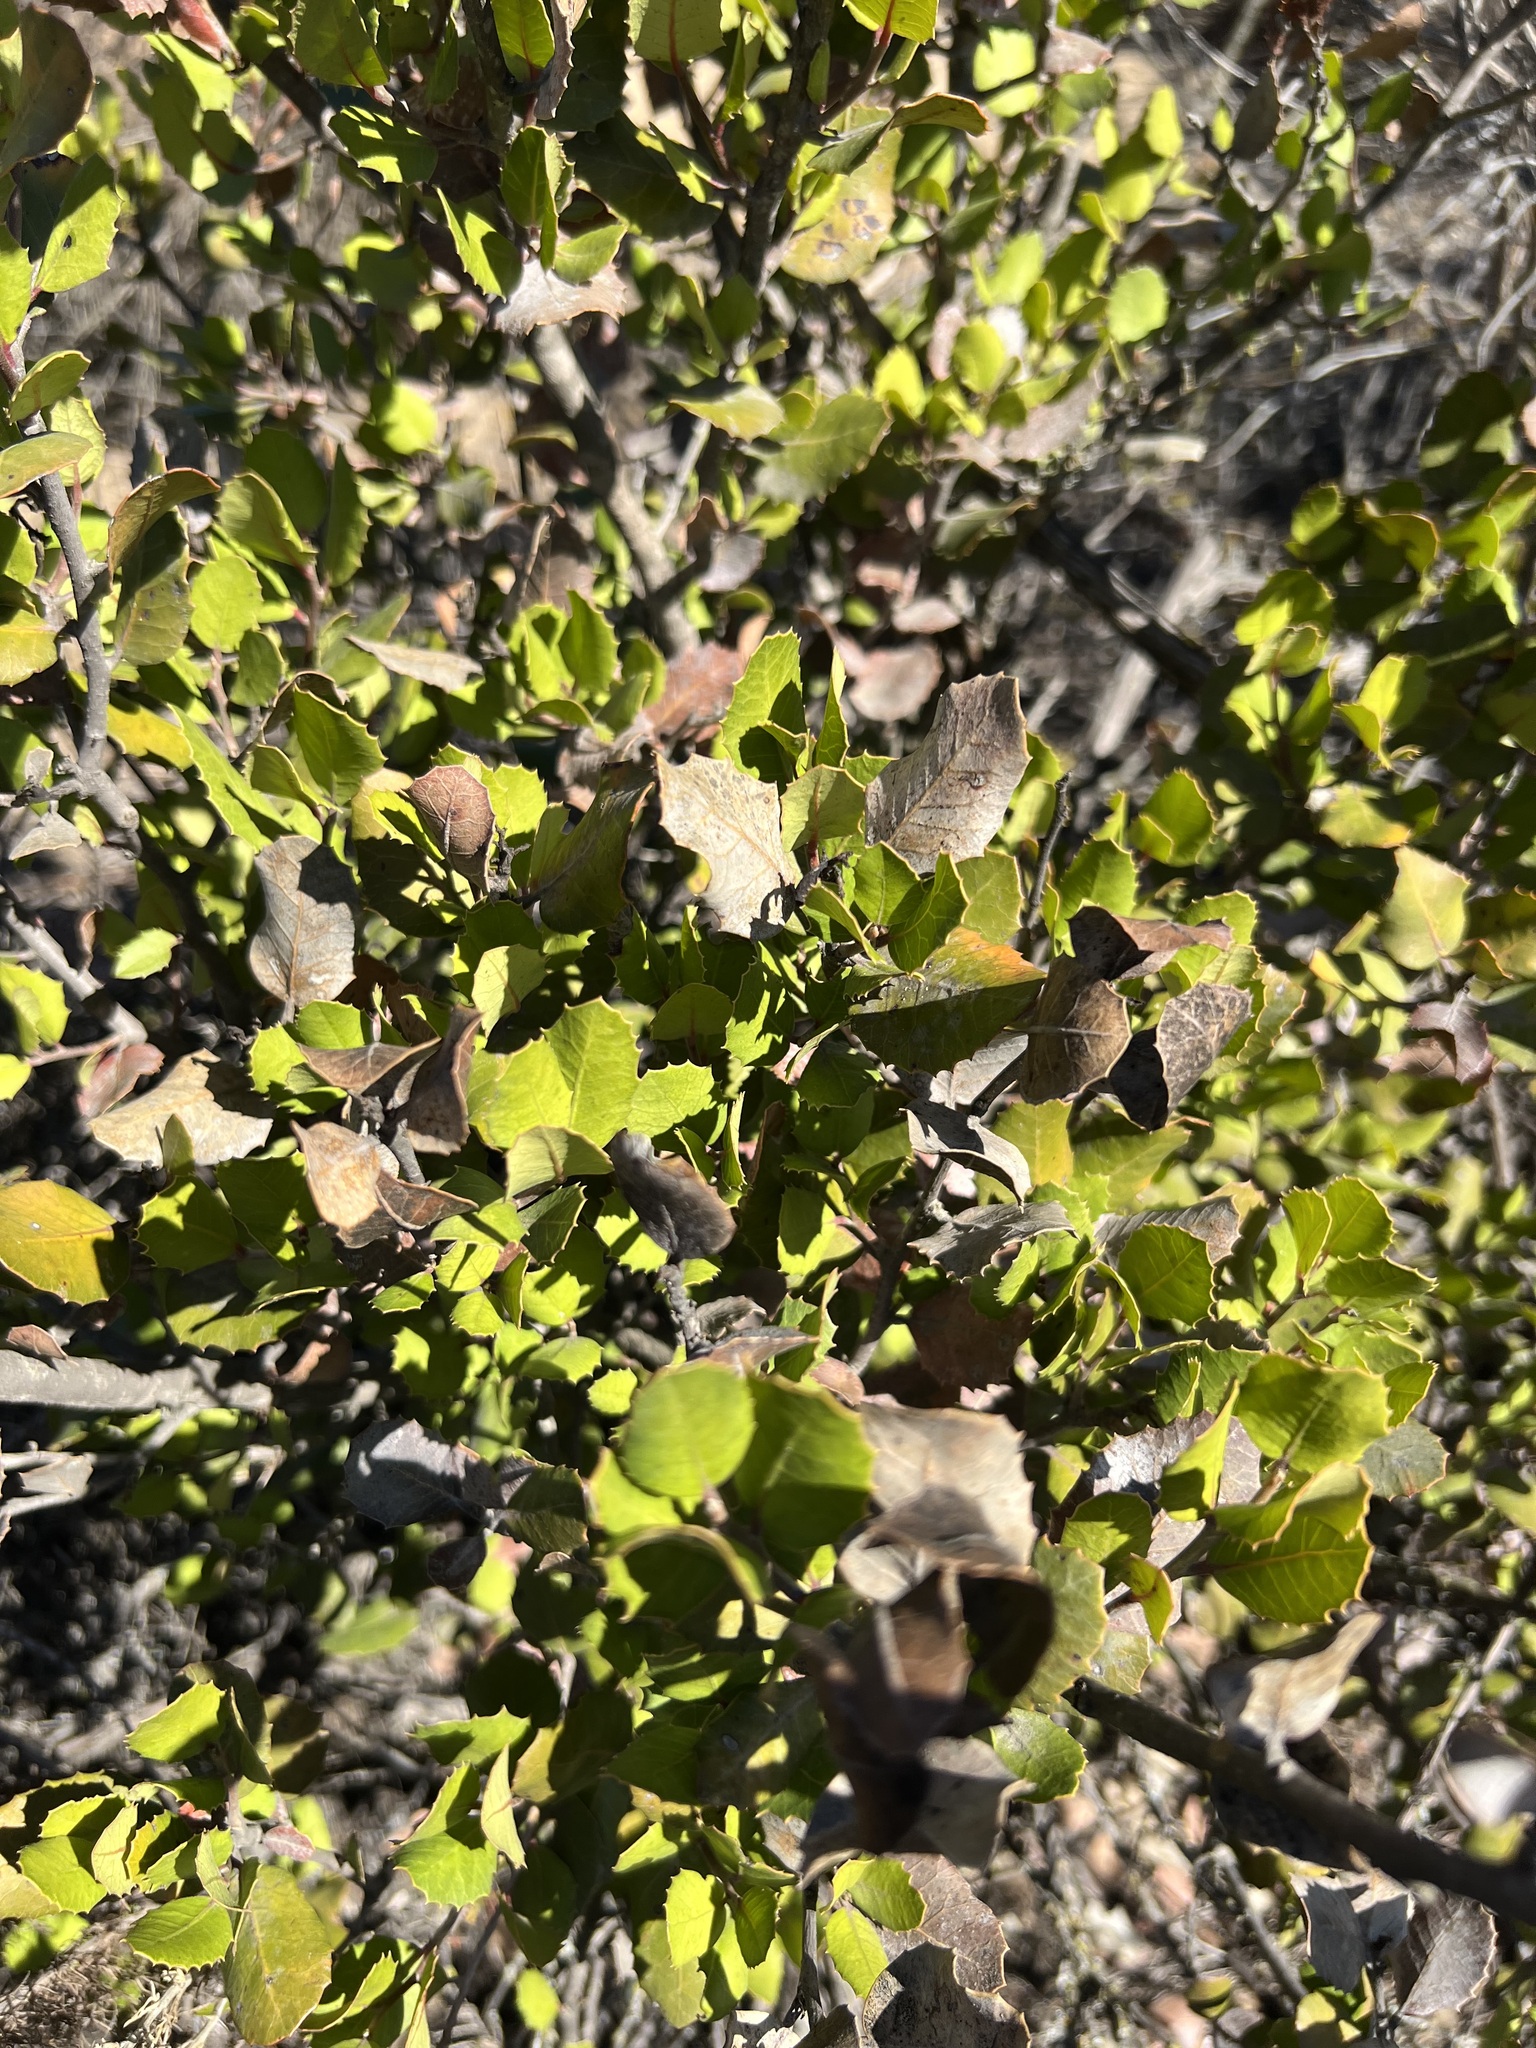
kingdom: Plantae
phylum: Tracheophyta
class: Magnoliopsida
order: Sapindales
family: Anacardiaceae
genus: Rhus
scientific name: Rhus integrifolia
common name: Lemonade sumac
